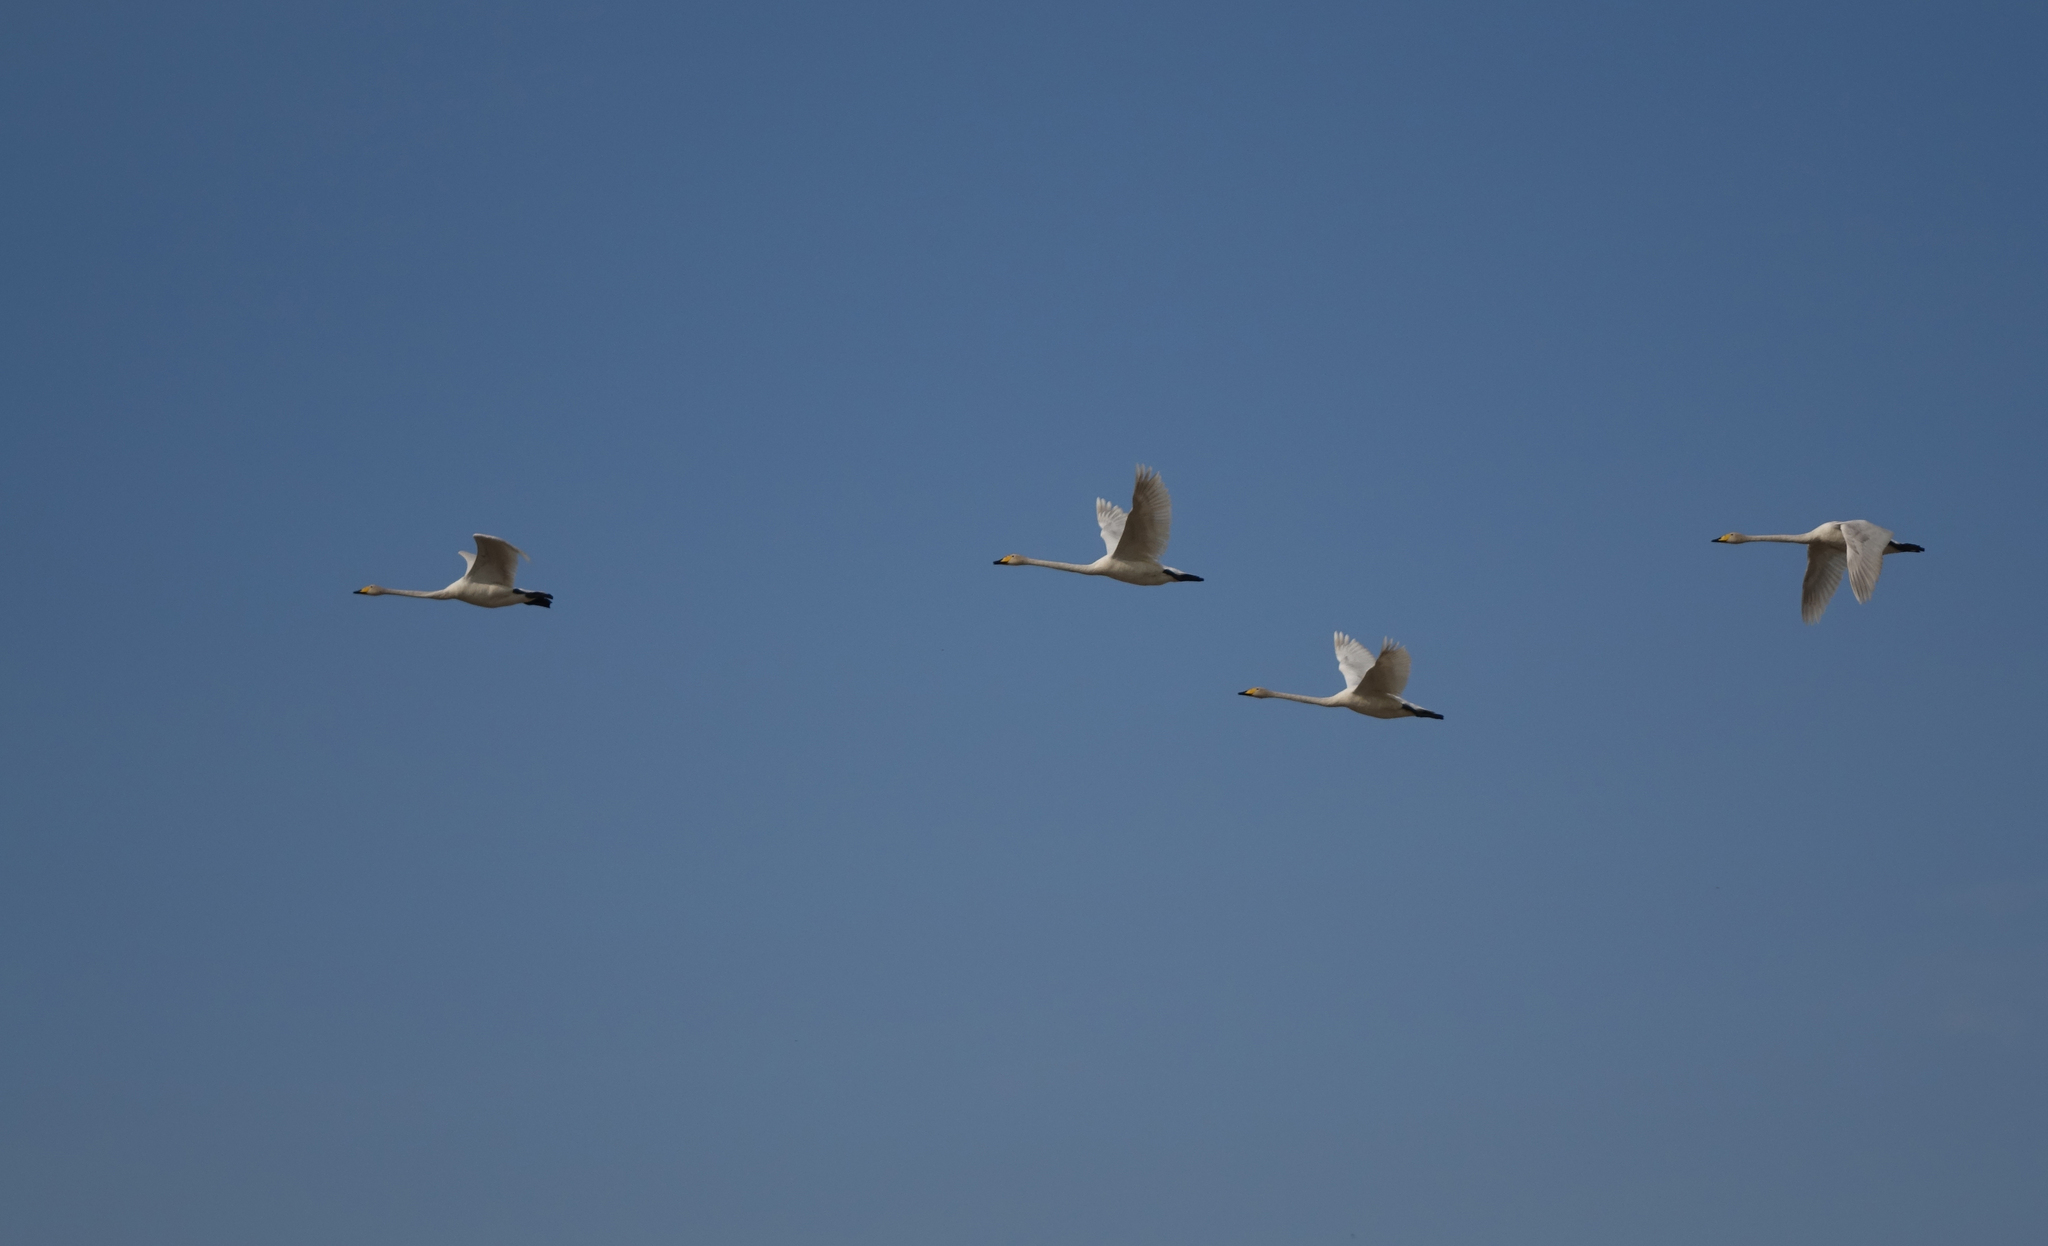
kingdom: Animalia
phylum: Chordata
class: Aves
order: Anseriformes
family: Anatidae
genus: Cygnus
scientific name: Cygnus cygnus
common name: Whooper swan
